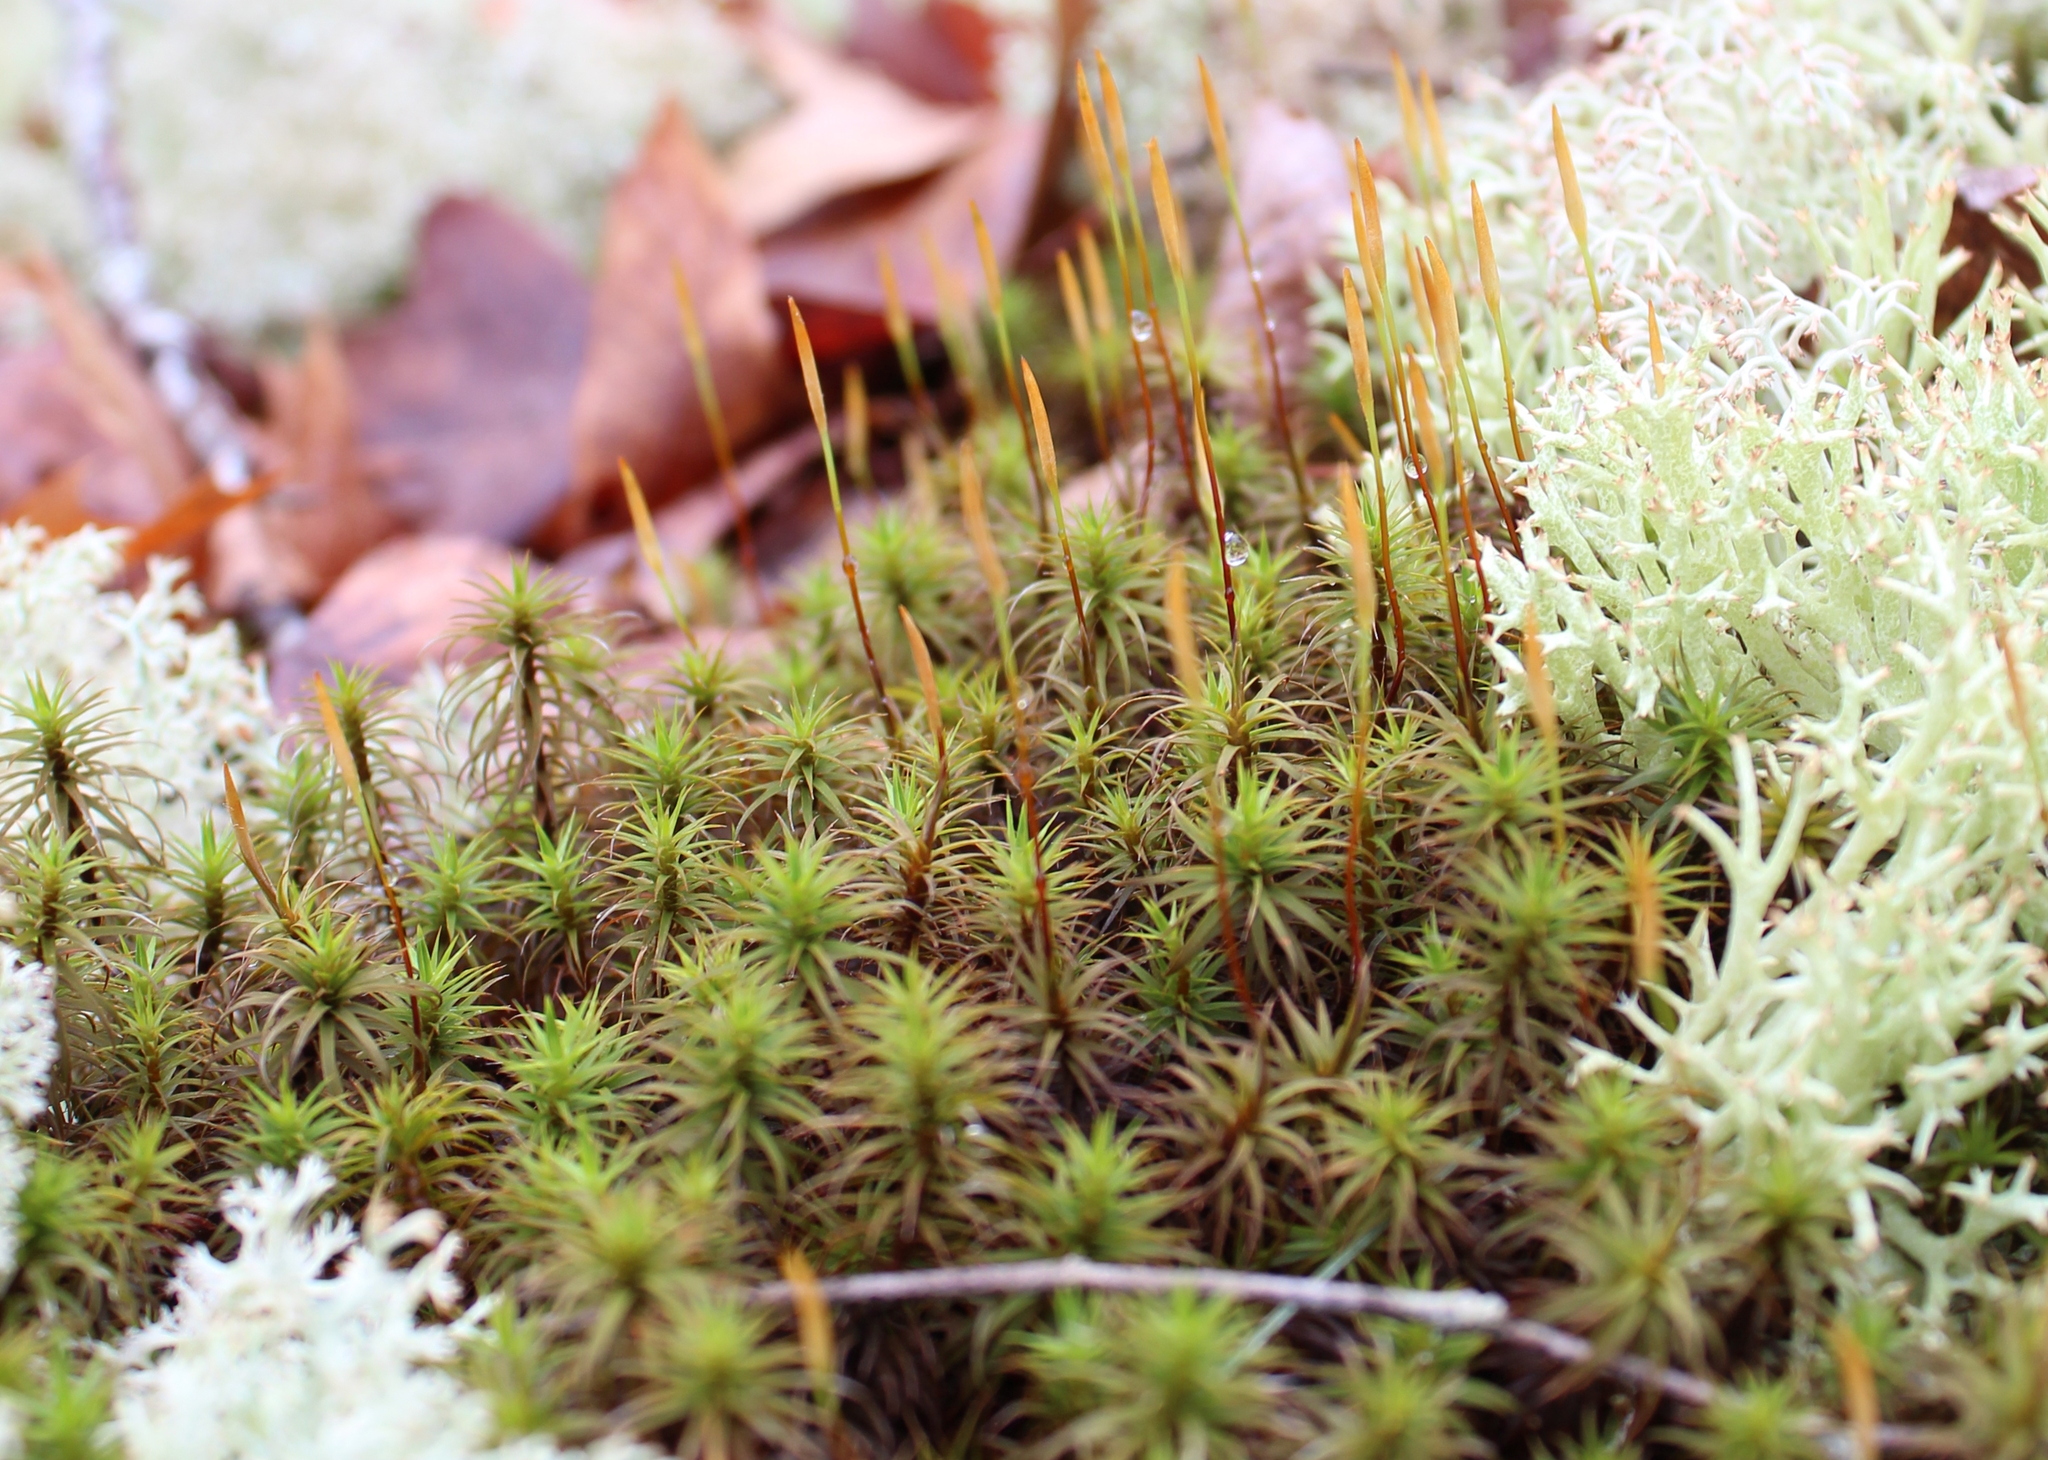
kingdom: Plantae
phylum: Bryophyta
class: Polytrichopsida
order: Polytrichales
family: Polytrichaceae
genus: Polytrichum
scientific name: Polytrichum commune
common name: Common haircap
